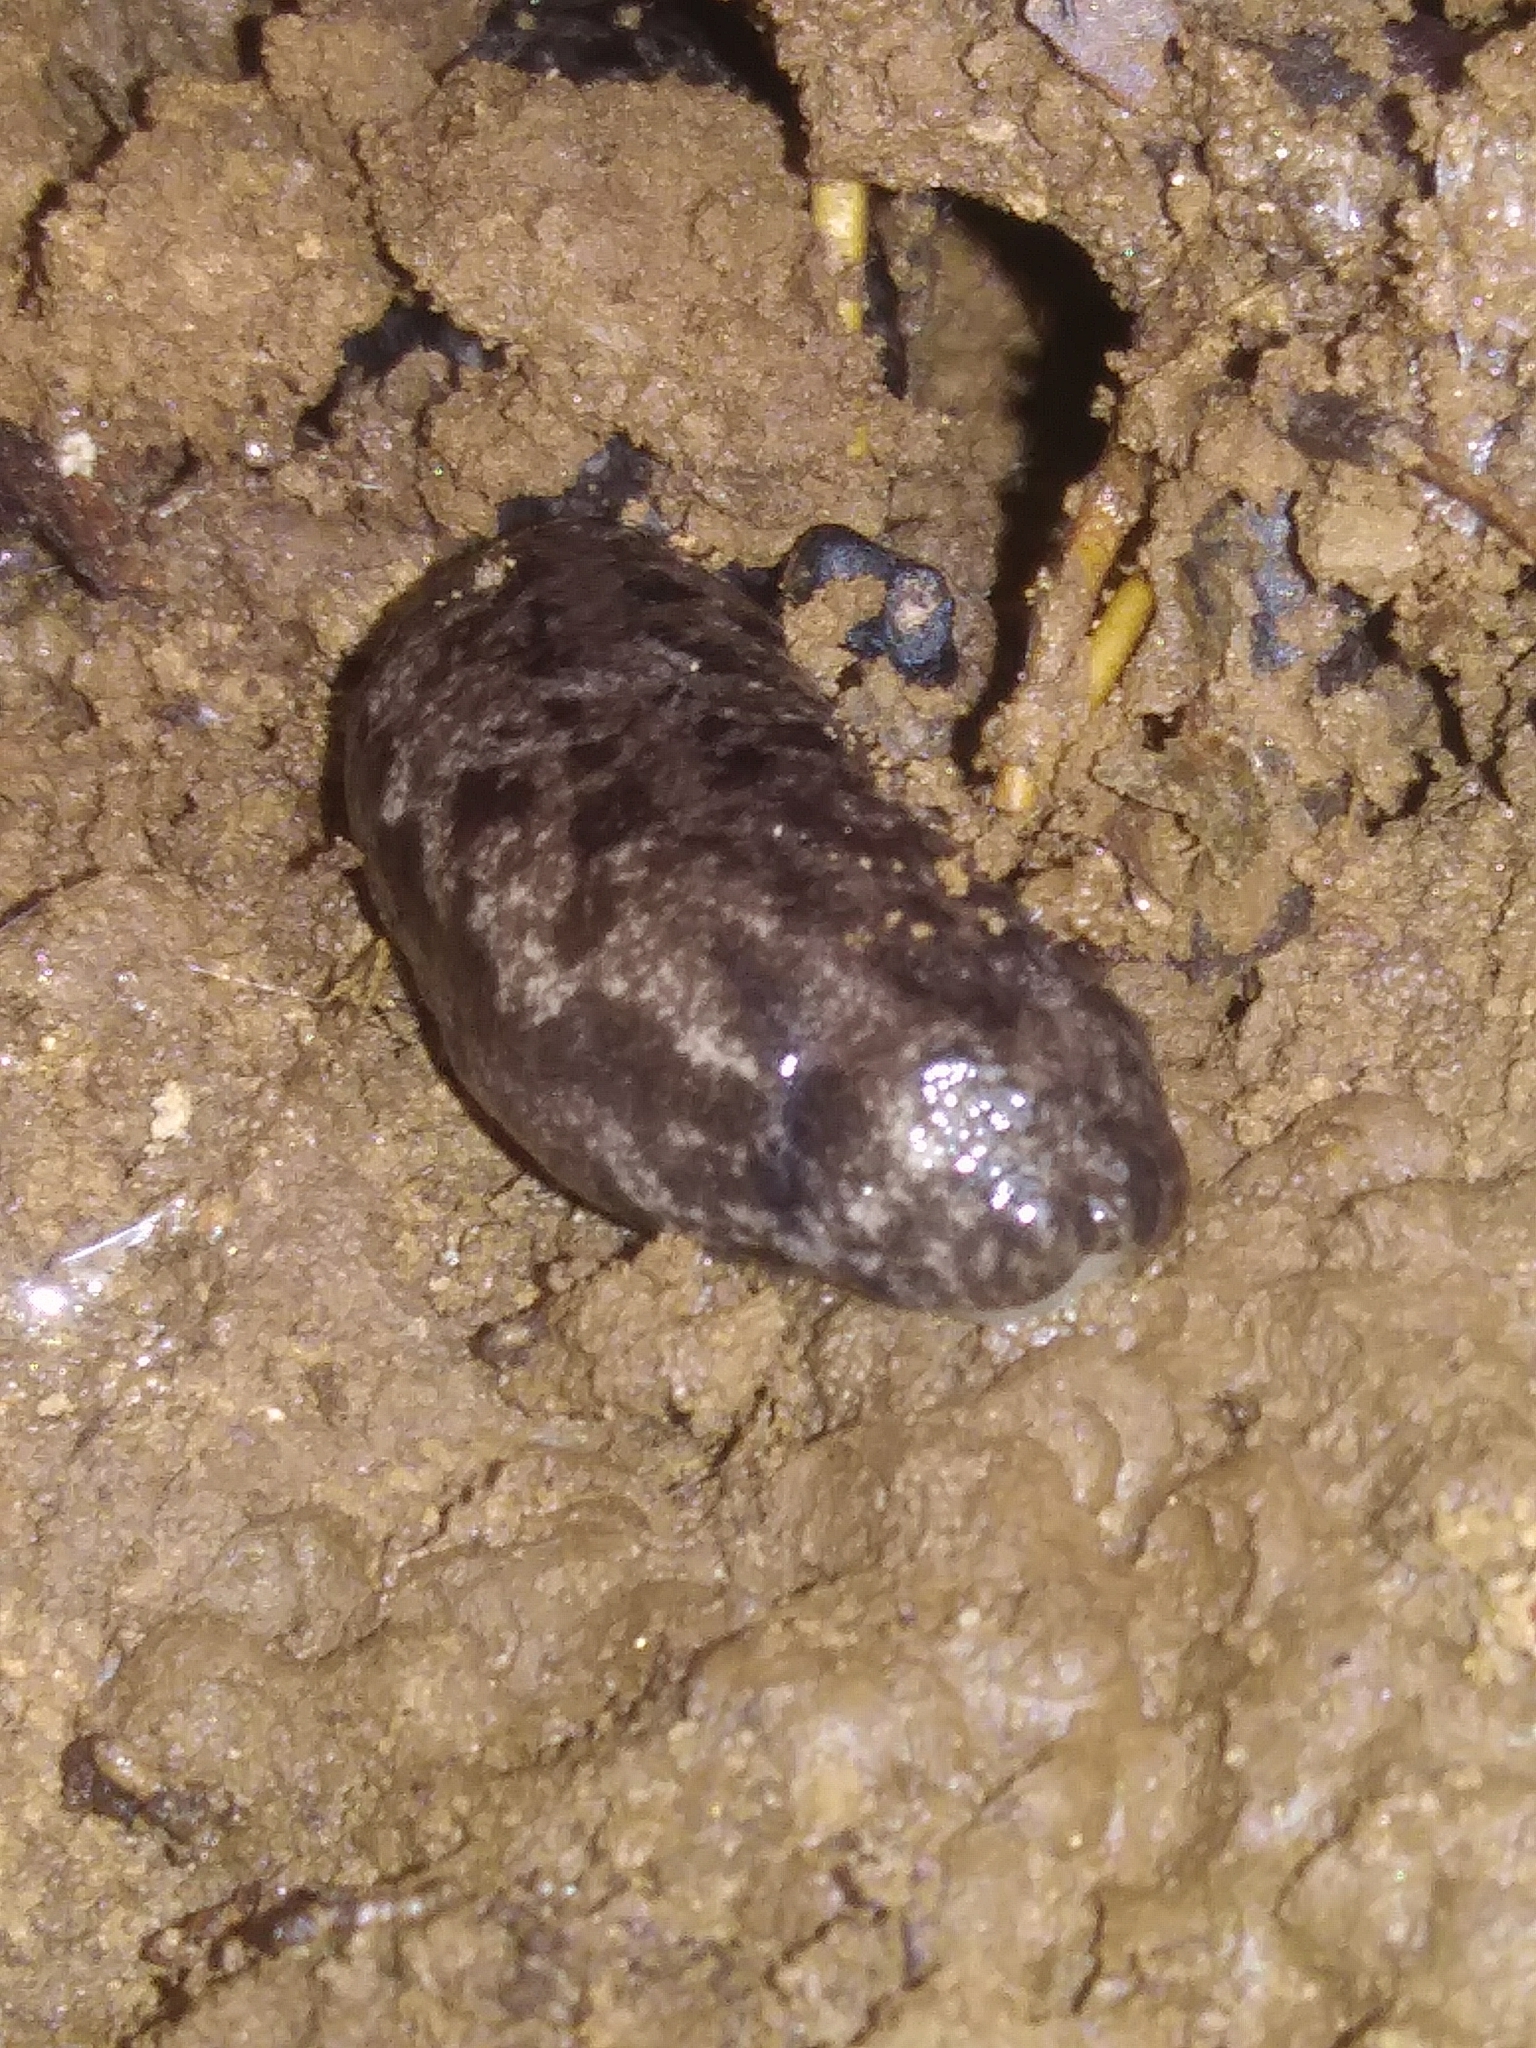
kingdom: Animalia
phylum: Mollusca
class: Gastropoda
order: Stylommatophora
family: Philomycidae
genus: Megapallifera
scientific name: Megapallifera mutabilis
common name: Changeable mantleslug
